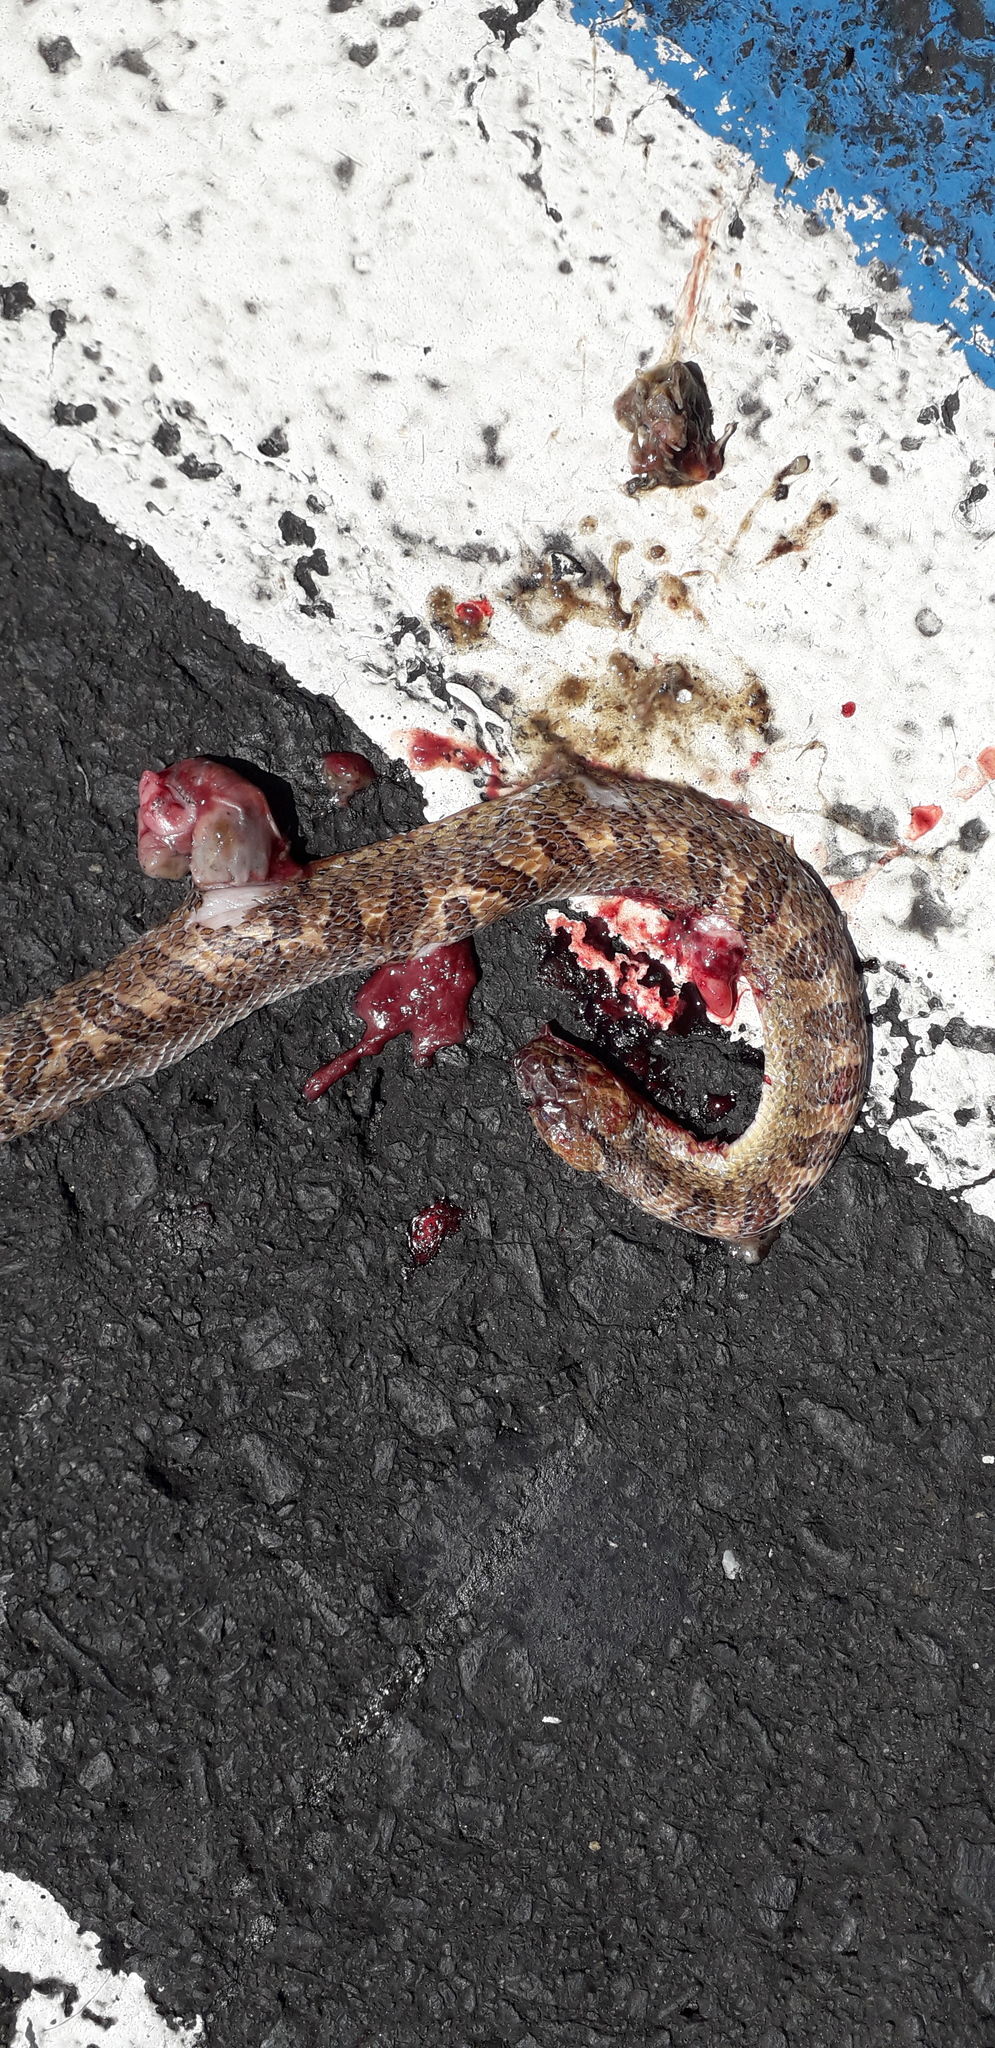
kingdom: Animalia
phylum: Chordata
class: Squamata
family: Colubridae
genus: Leptodeira
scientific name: Leptodeira rhombifera
